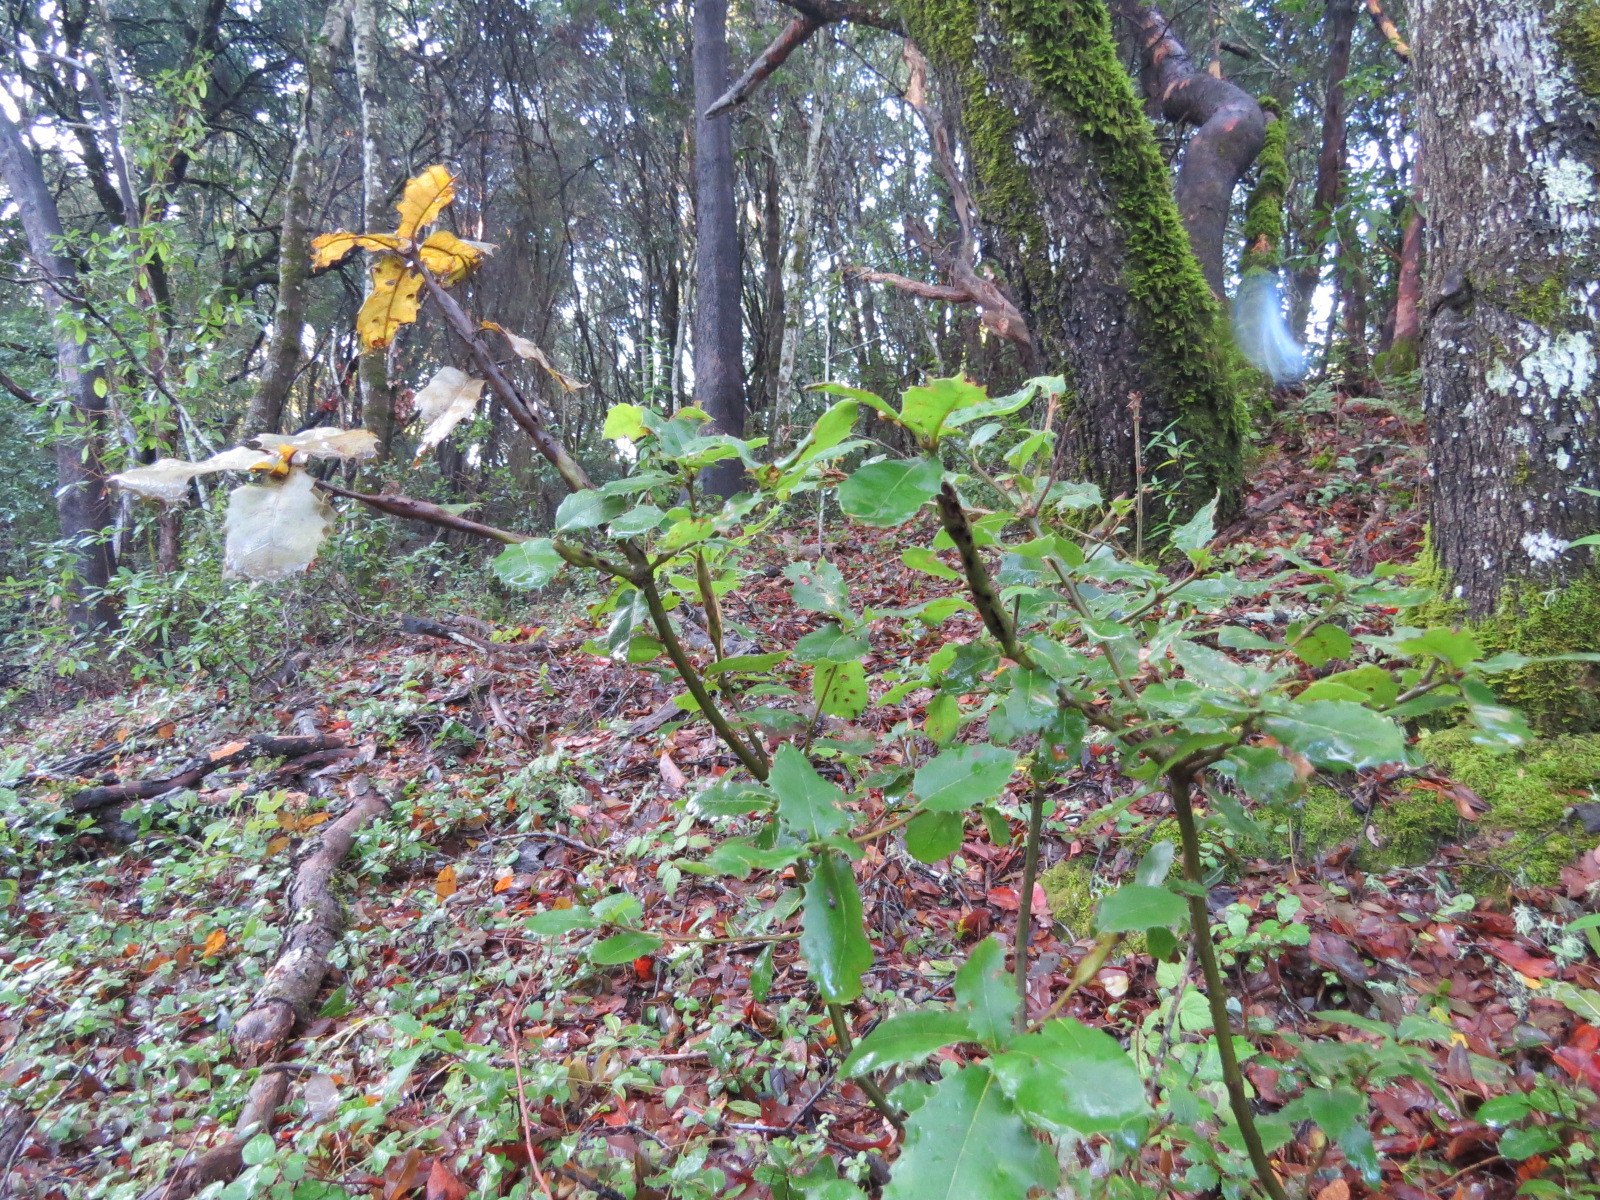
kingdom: Animalia
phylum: Arthropoda
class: Insecta
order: Hymenoptera
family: Cynipidae
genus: Callirhytis
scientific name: Callirhytis
